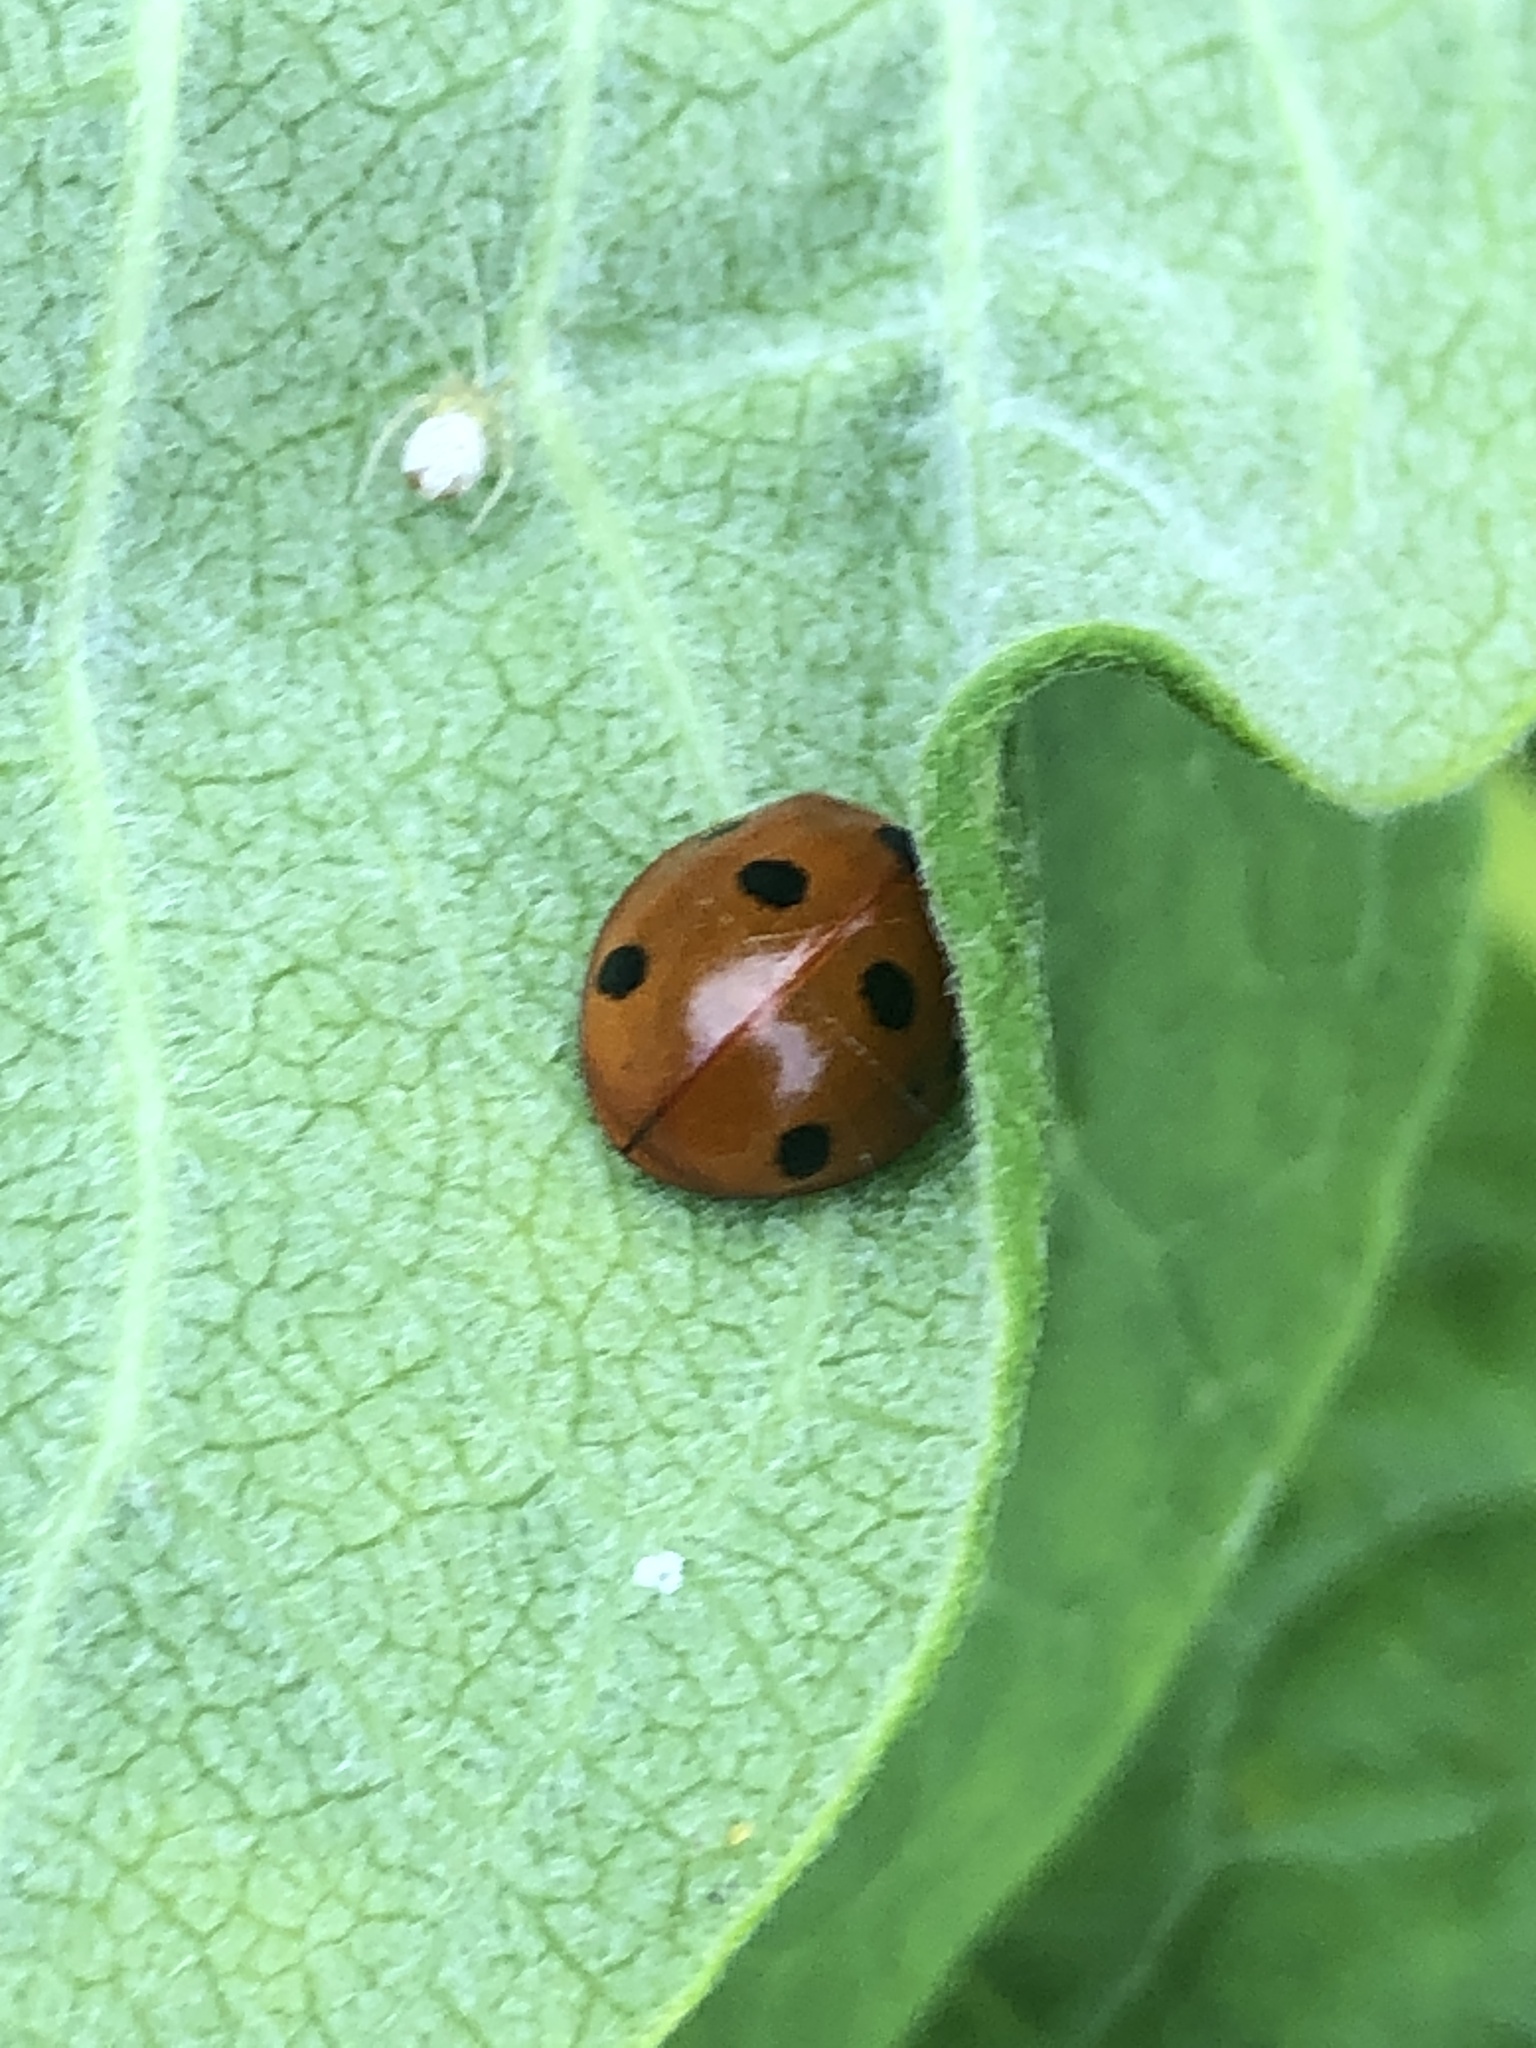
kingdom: Animalia
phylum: Arthropoda
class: Insecta
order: Coleoptera
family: Coccinellidae
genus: Coccinella
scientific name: Coccinella septempunctata
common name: Sevenspotted lady beetle
